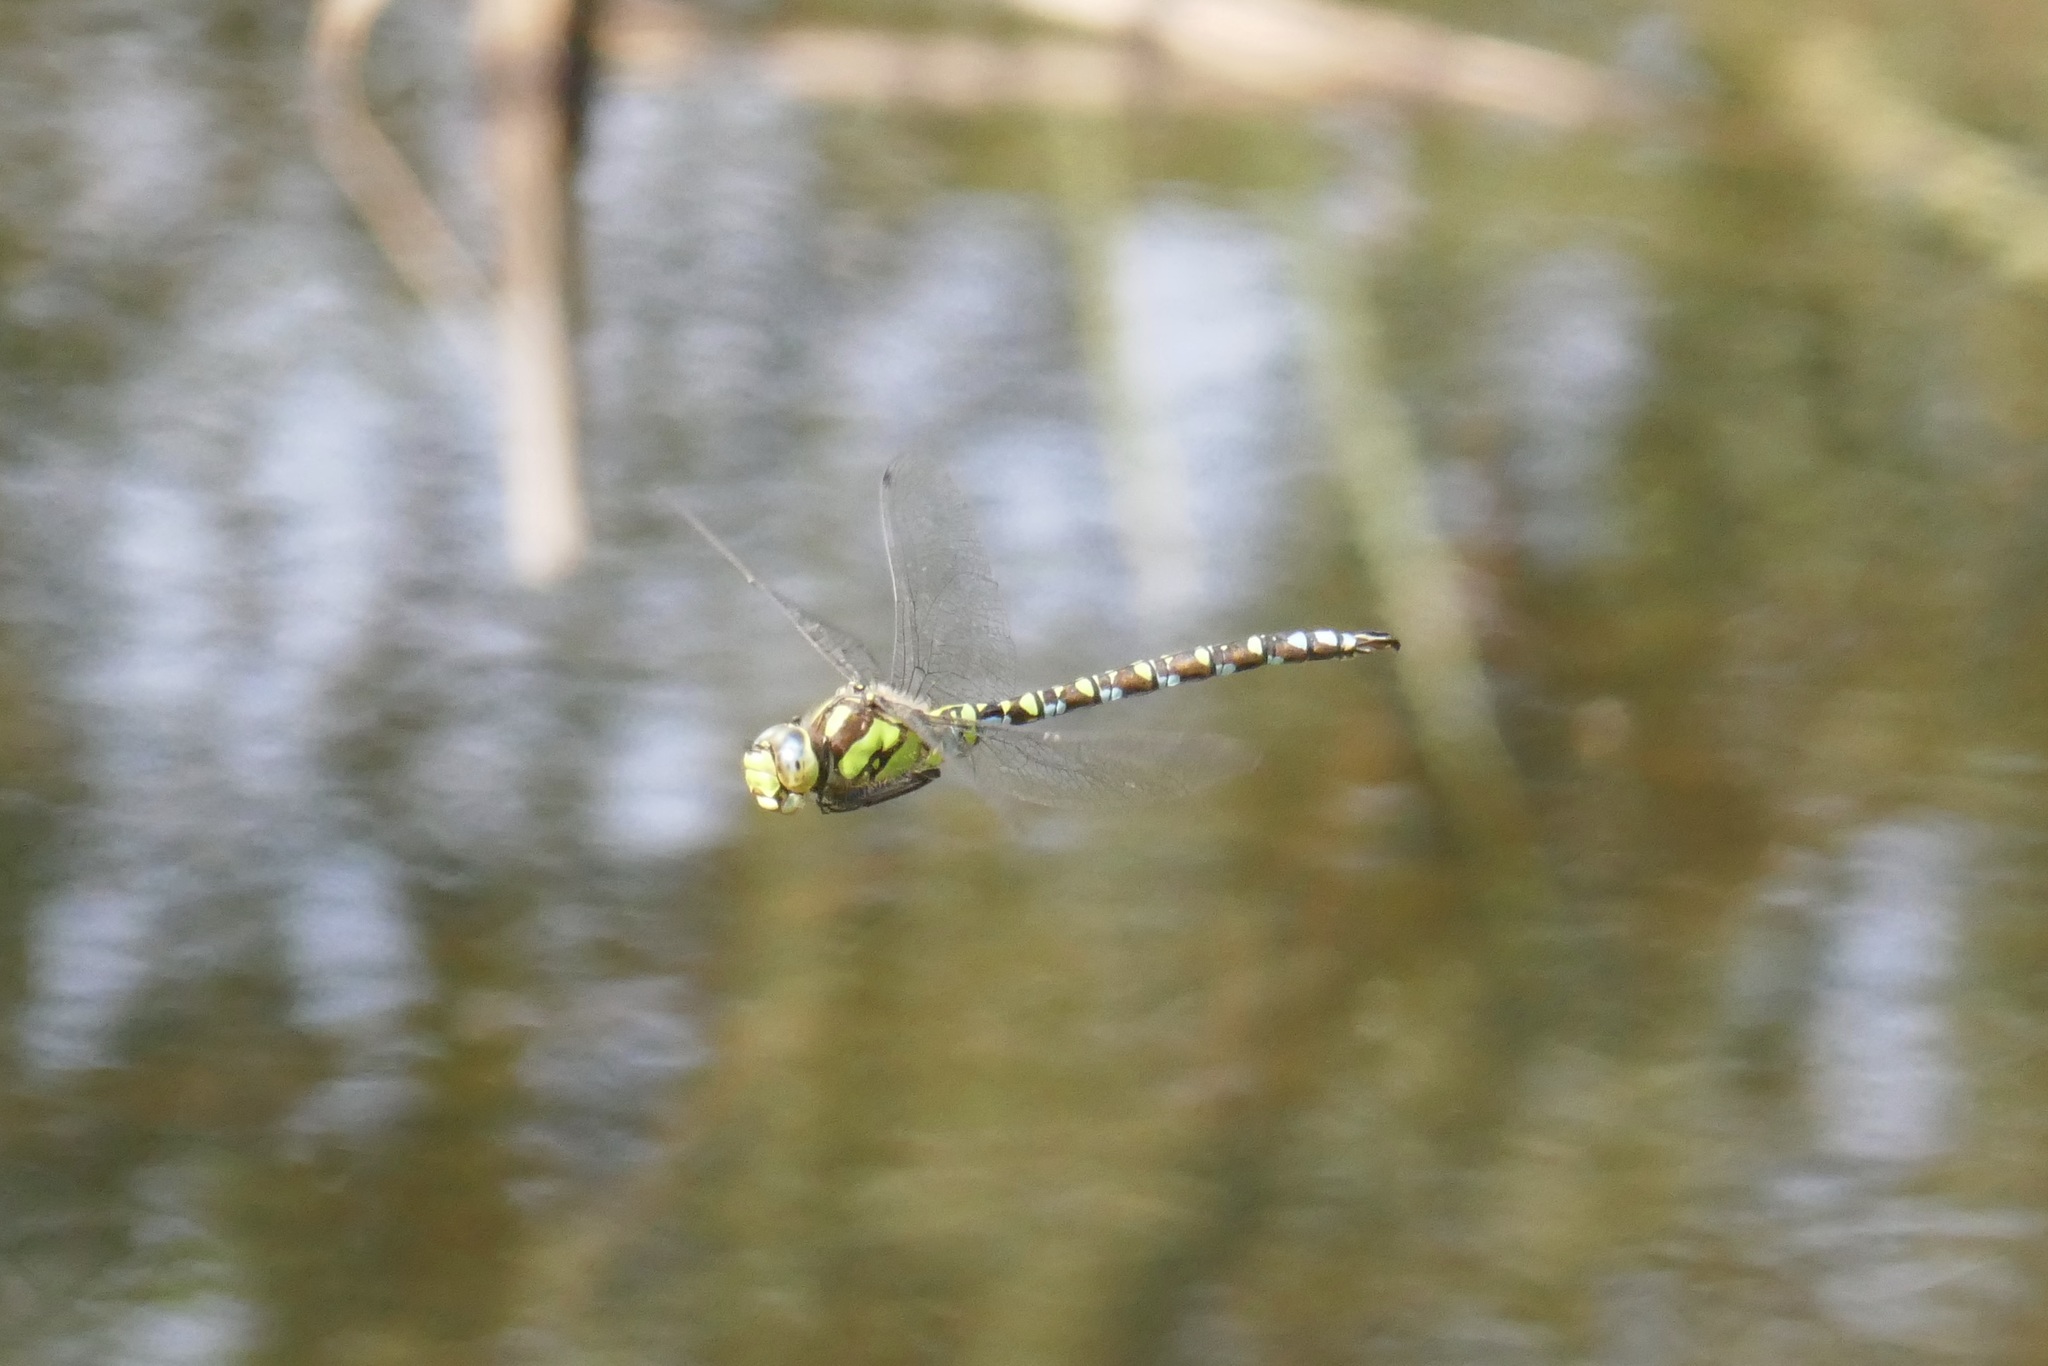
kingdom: Animalia
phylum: Arthropoda
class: Insecta
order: Odonata
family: Aeshnidae
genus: Aeshna
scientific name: Aeshna cyanea
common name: Southern hawker
